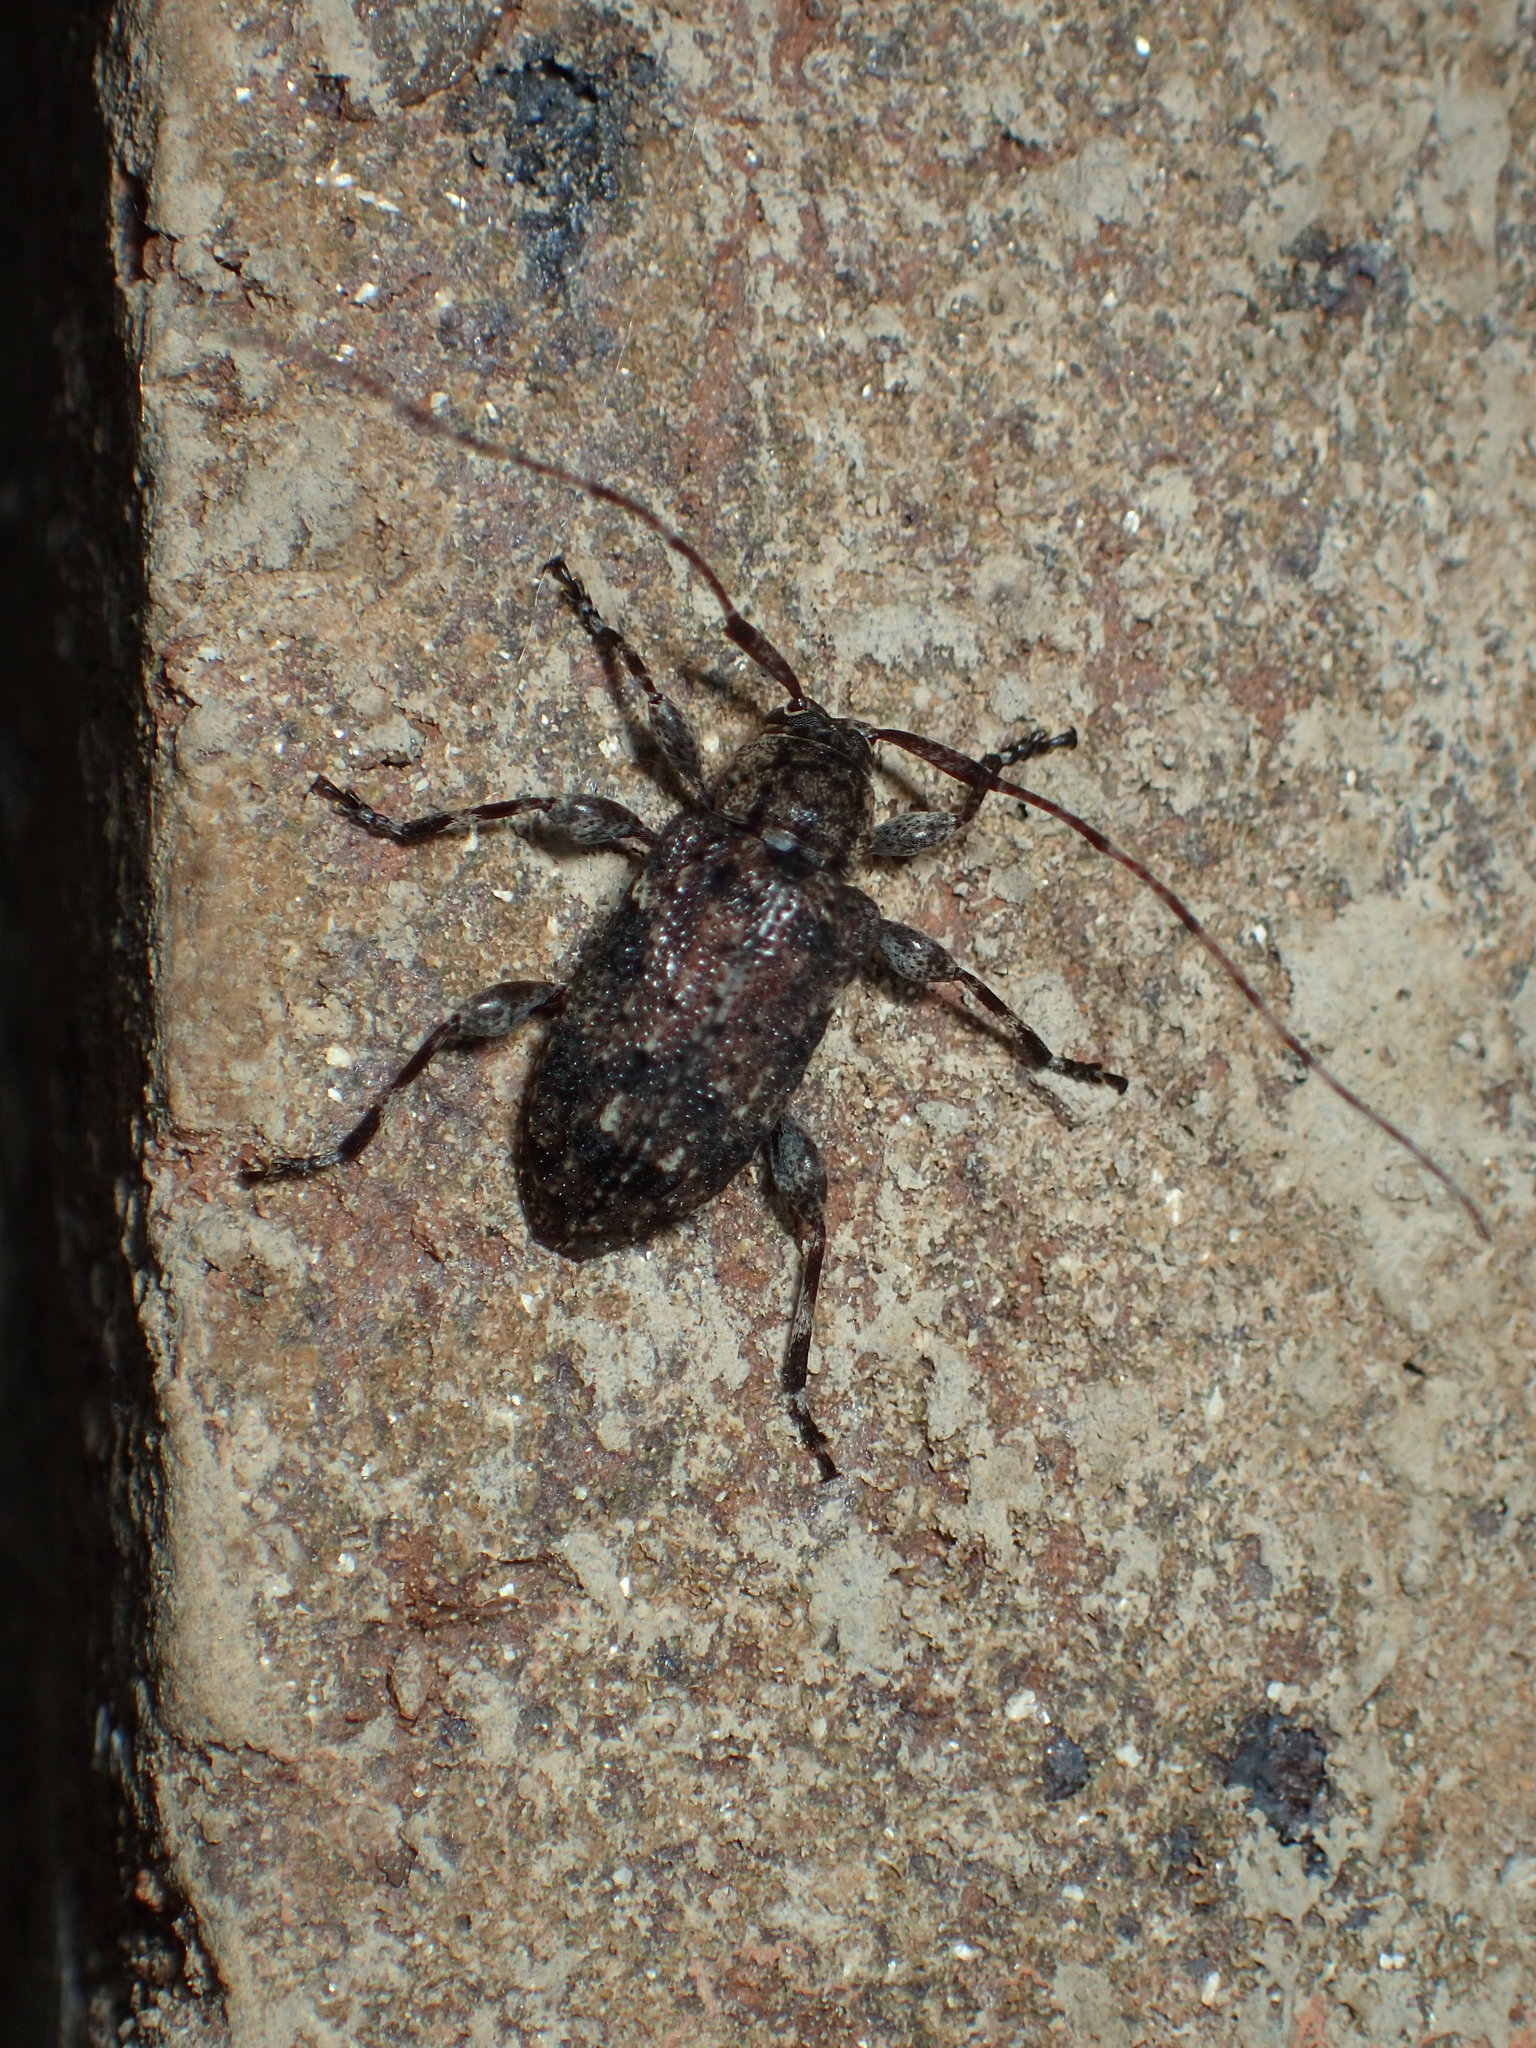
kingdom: Animalia
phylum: Arthropoda
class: Insecta
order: Coleoptera
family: Cerambycidae
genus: Astylopsis
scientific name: Astylopsis sexguttata
